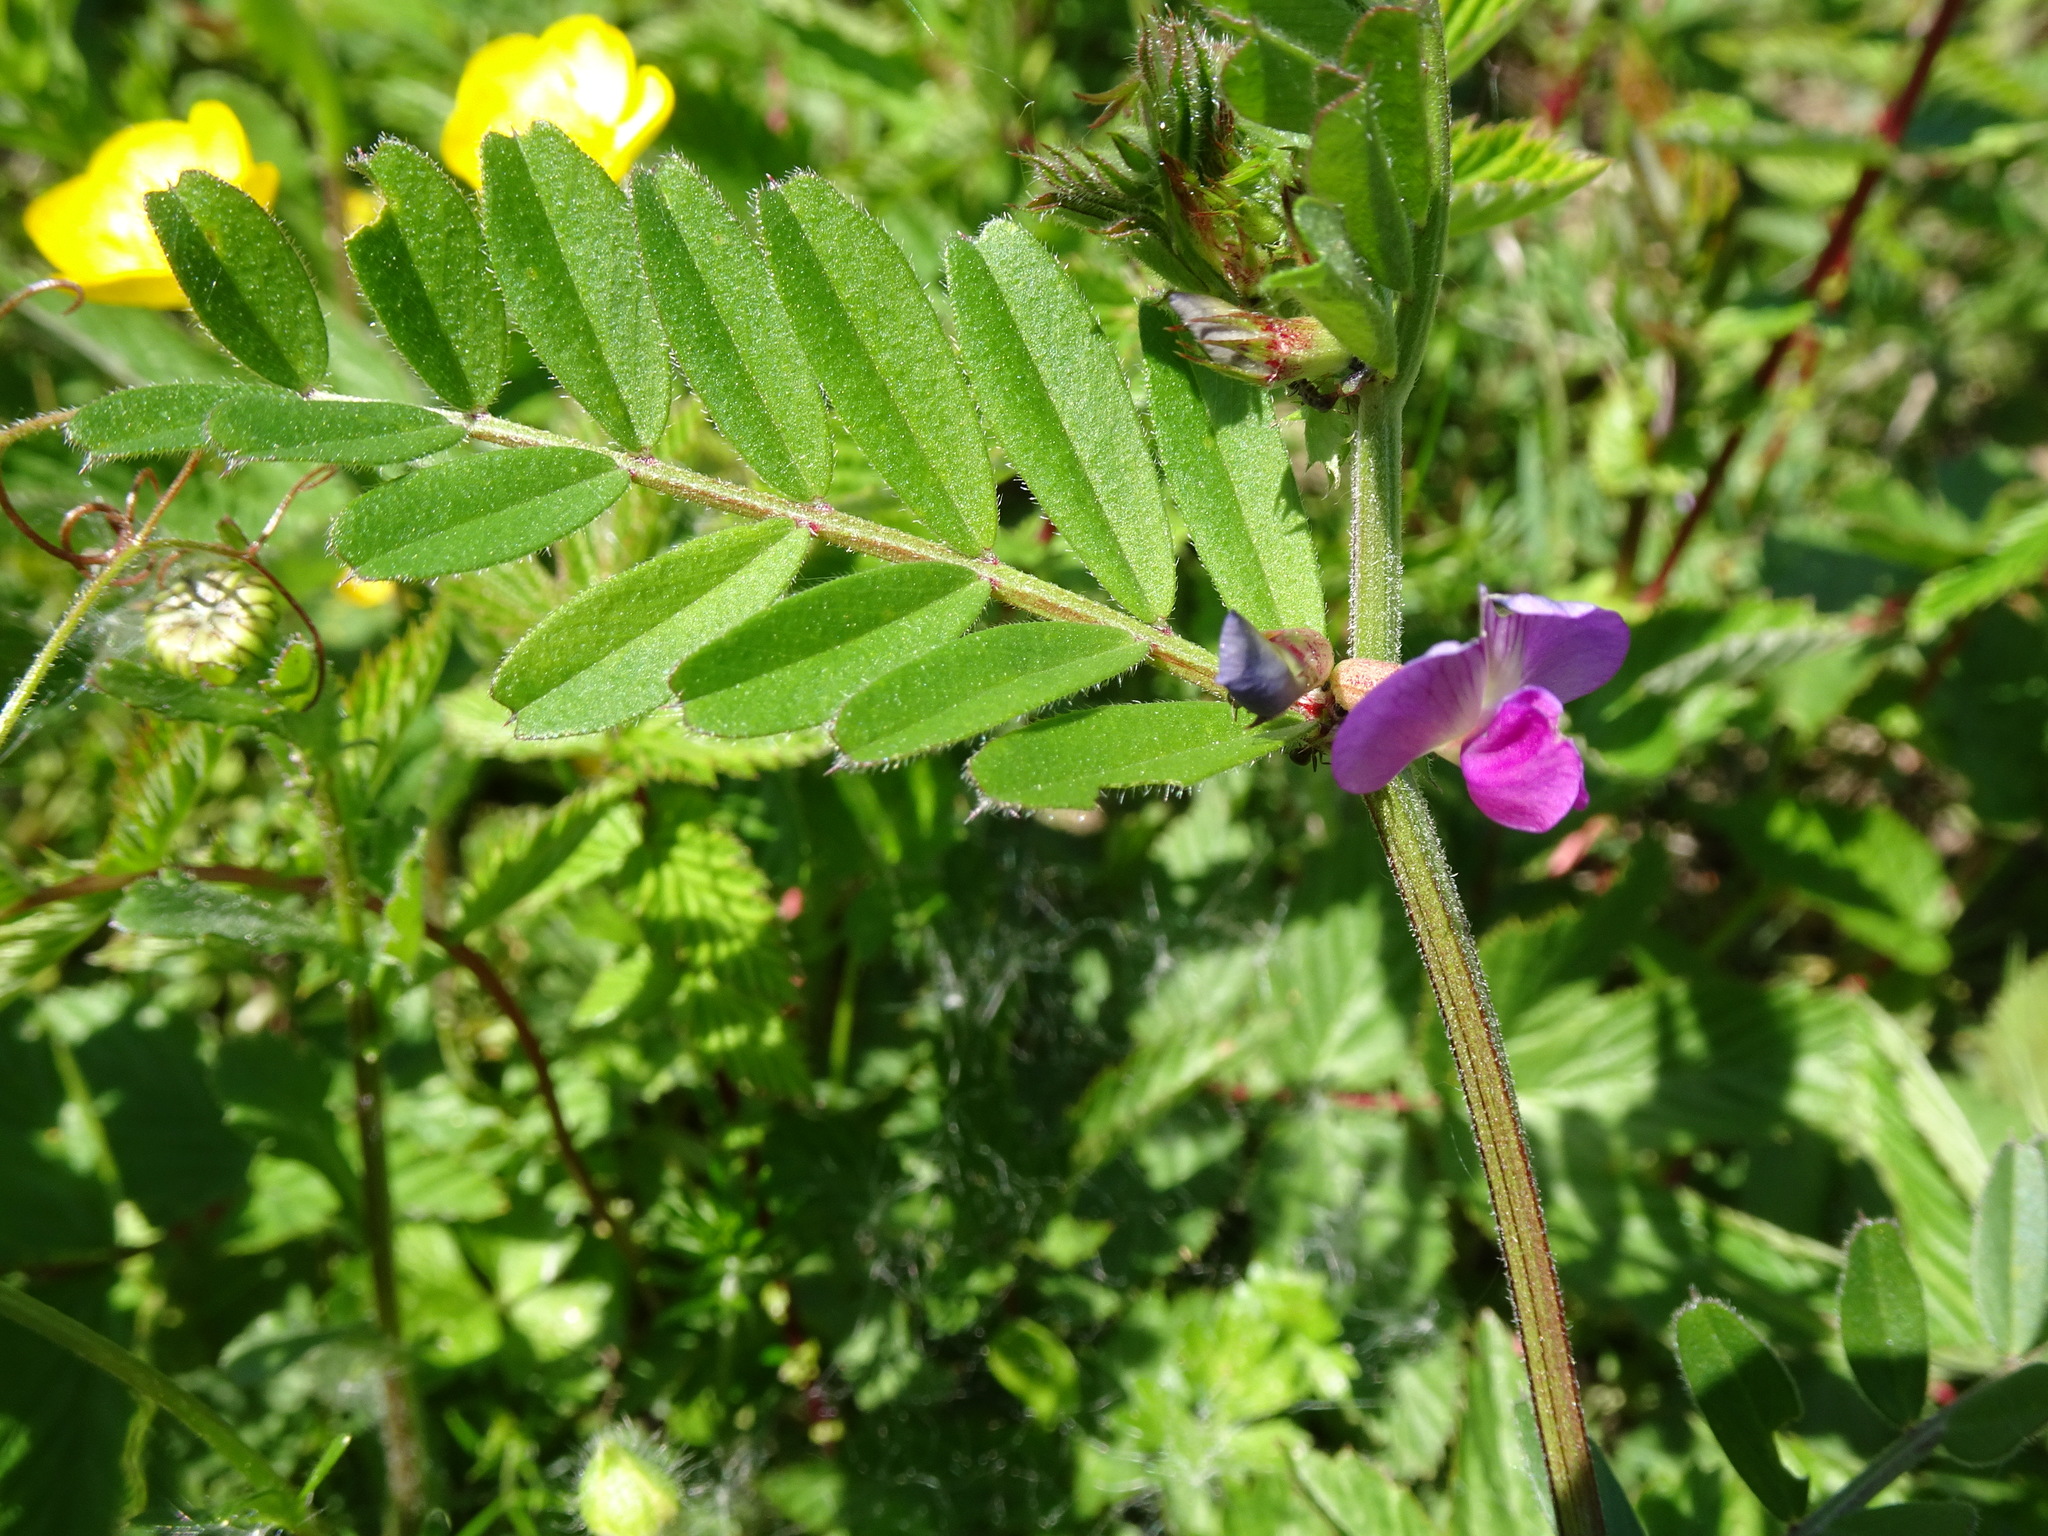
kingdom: Plantae
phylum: Tracheophyta
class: Magnoliopsida
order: Fabales
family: Fabaceae
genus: Vicia
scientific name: Vicia sativa
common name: Garden vetch
